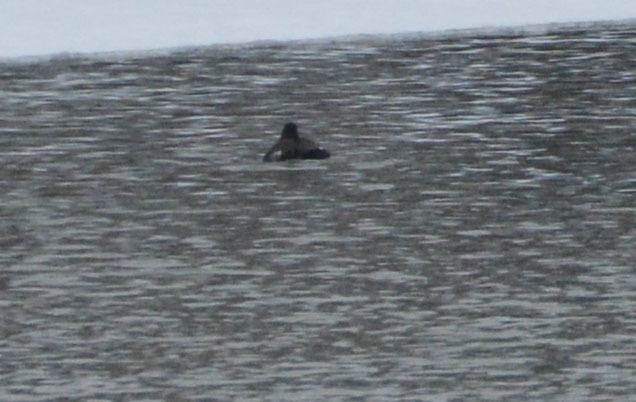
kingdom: Animalia
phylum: Chordata
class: Aves
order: Anseriformes
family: Anatidae
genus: Melanitta
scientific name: Melanitta fusca
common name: Velvet scoter
